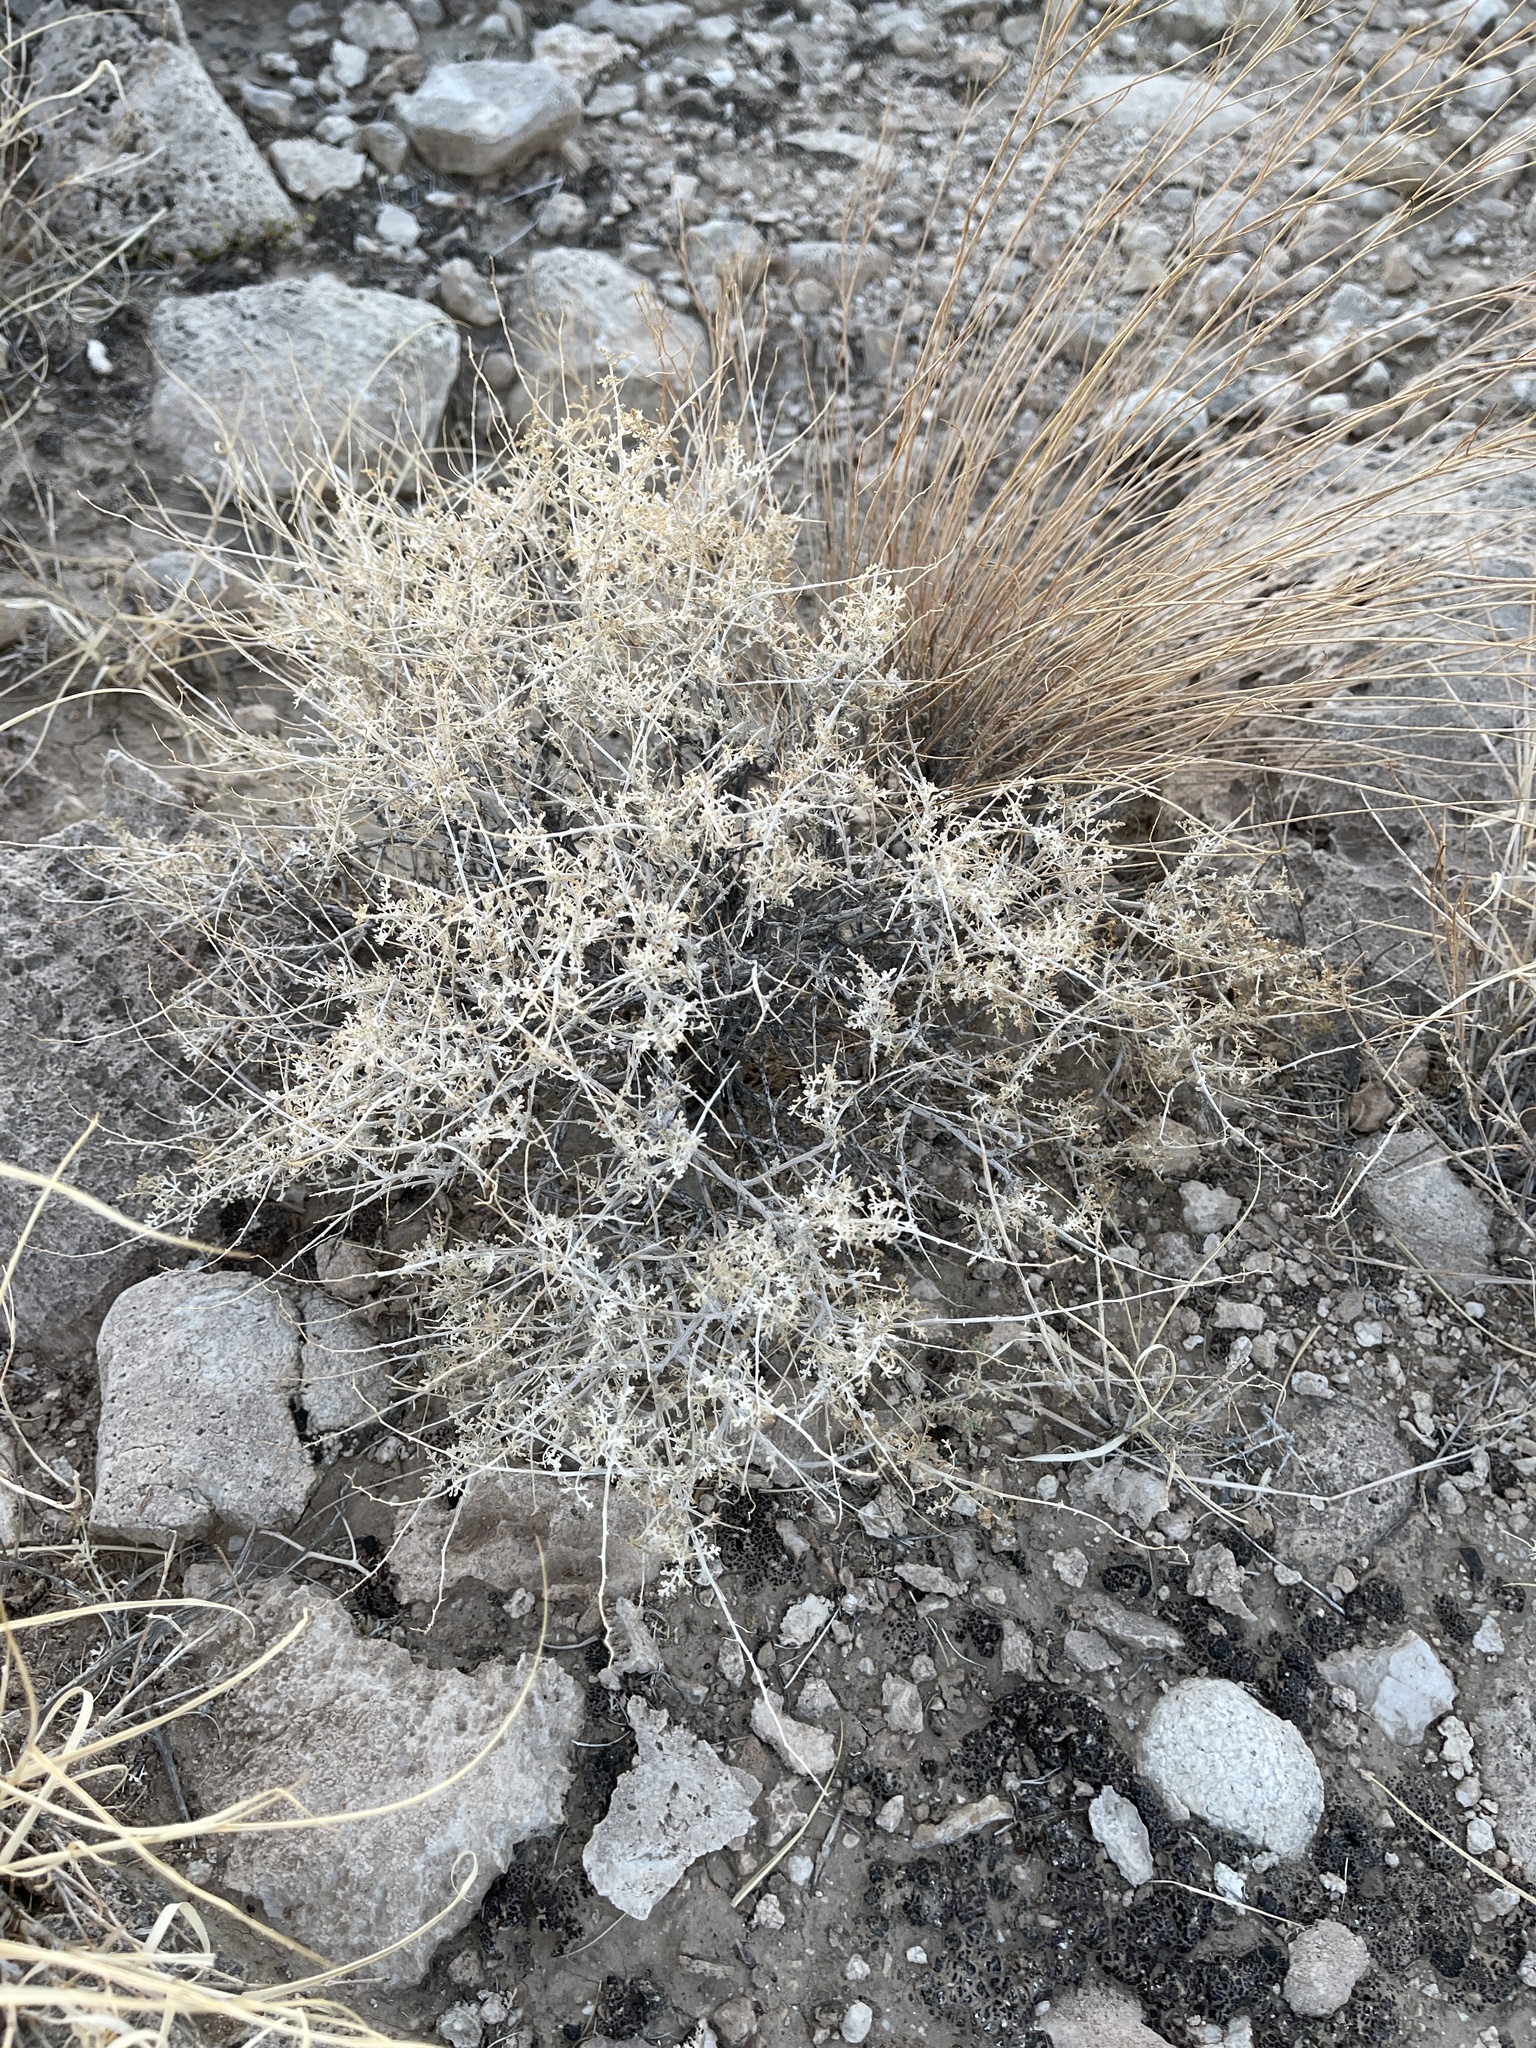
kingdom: Plantae
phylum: Tracheophyta
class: Magnoliopsida
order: Asterales
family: Asteraceae
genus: Ambrosia
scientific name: Ambrosia dumosa
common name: Bur-sage
